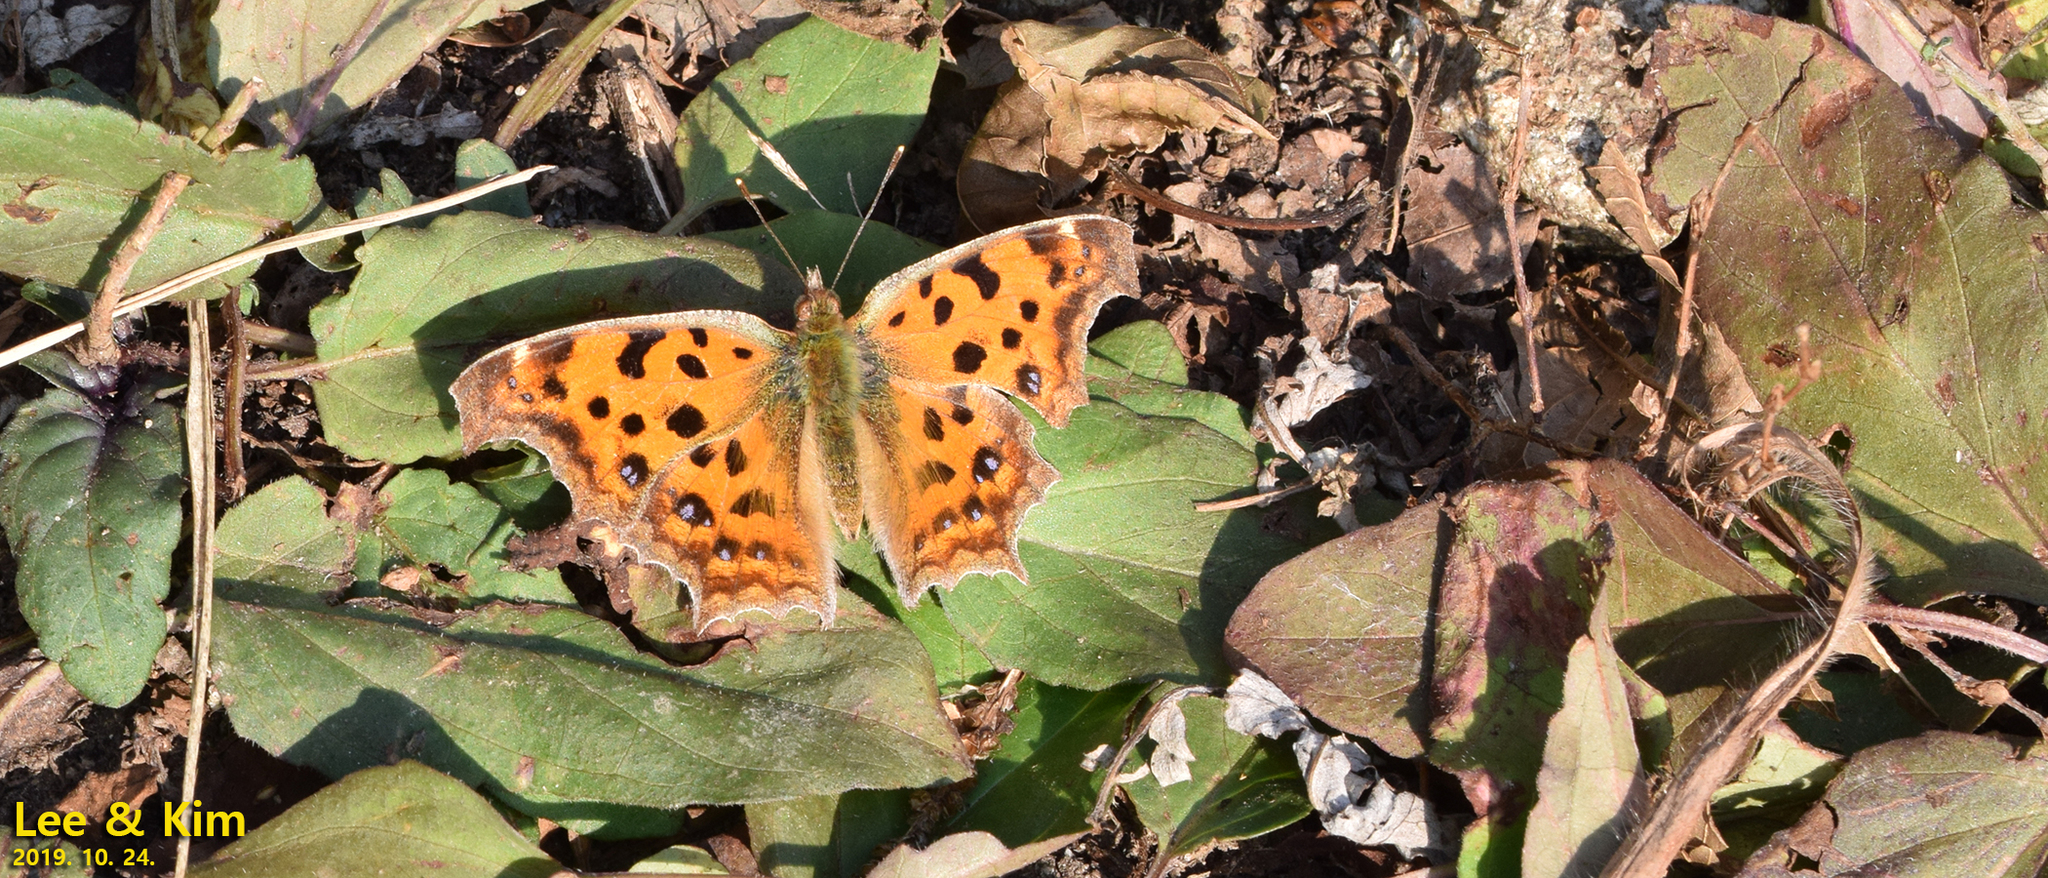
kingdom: Animalia
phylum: Arthropoda
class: Insecta
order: Lepidoptera
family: Nymphalidae
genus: Polygonia
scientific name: Polygonia c-aureum
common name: Asian comma
